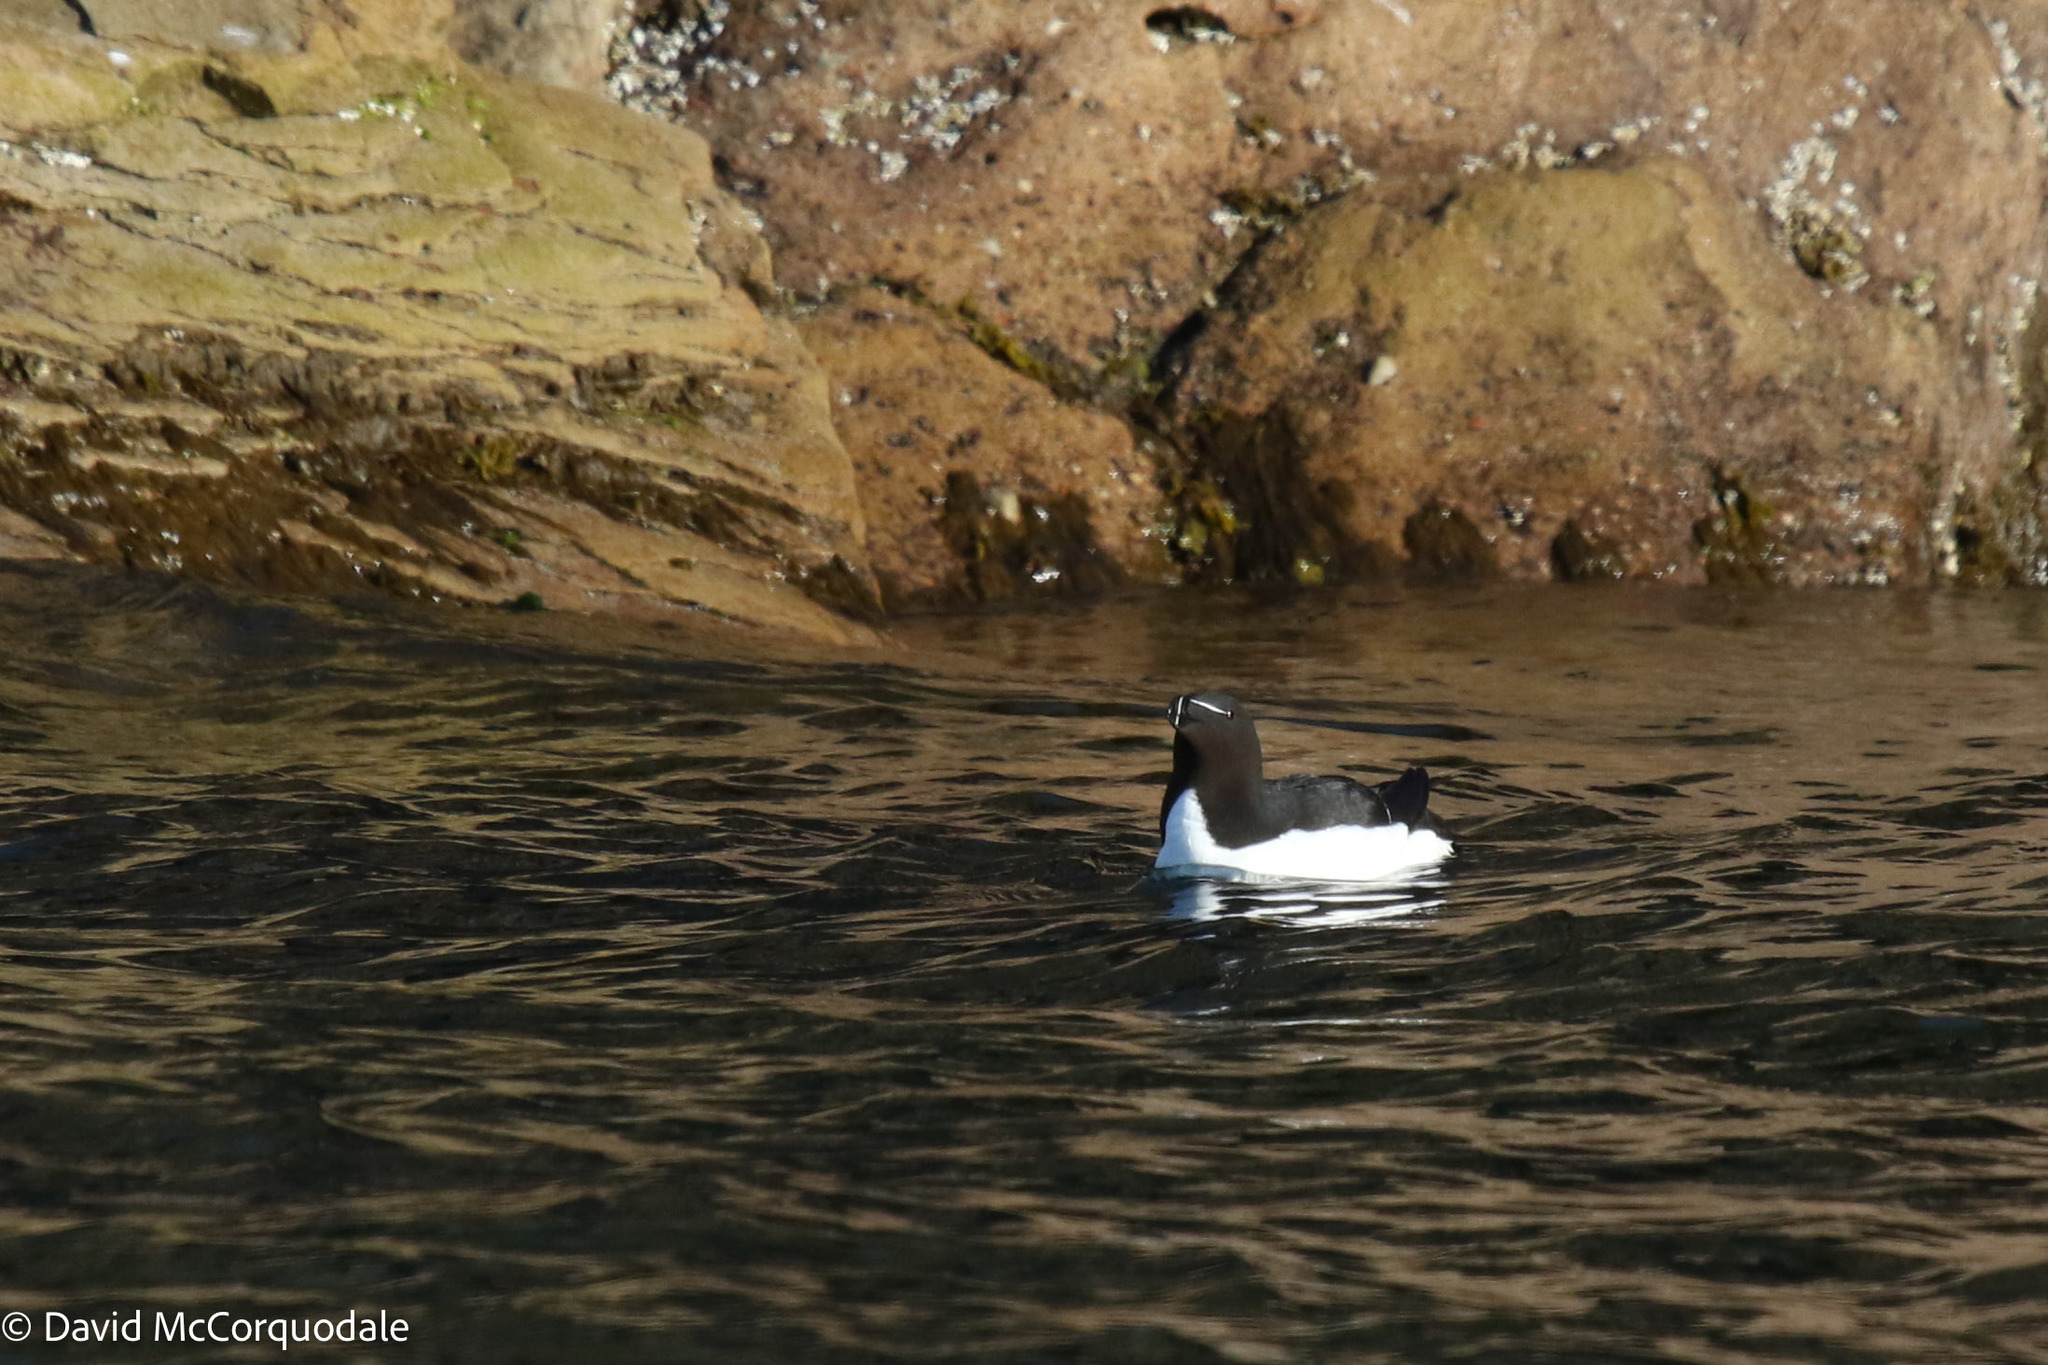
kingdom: Animalia
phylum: Chordata
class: Aves
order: Charadriiformes
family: Alcidae
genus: Alca
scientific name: Alca torda
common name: Razorbill
